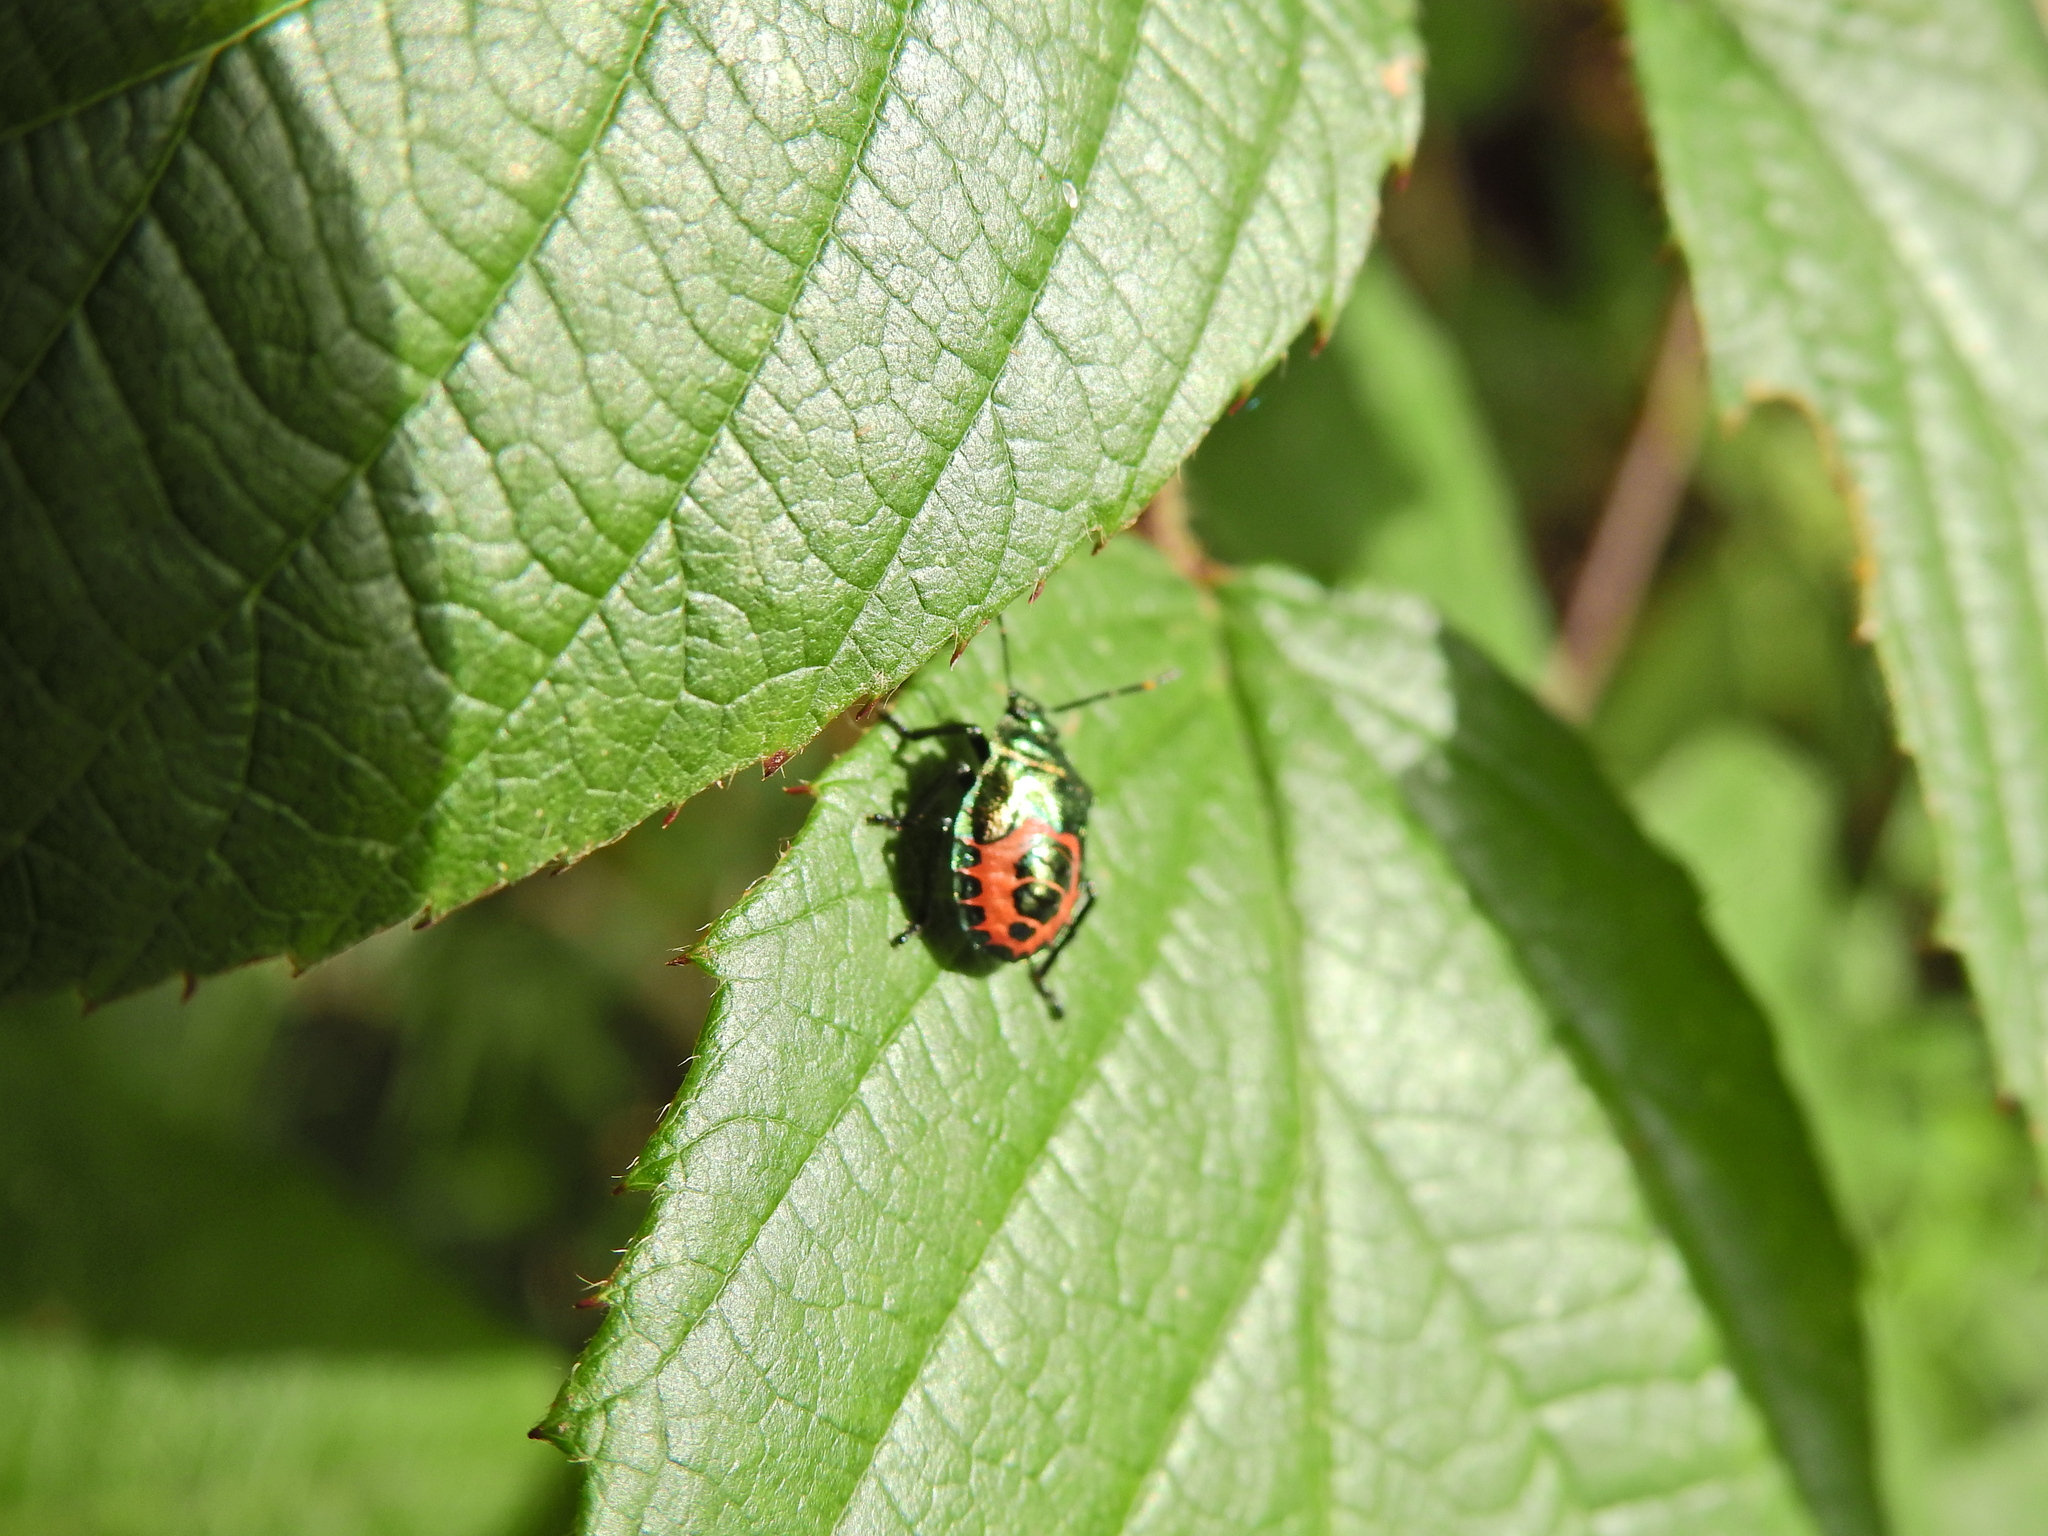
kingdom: Animalia
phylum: Arthropoda
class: Insecta
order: Hemiptera
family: Pentatomidae
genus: Troilus
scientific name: Troilus luridus
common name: Bronze shieldbug
